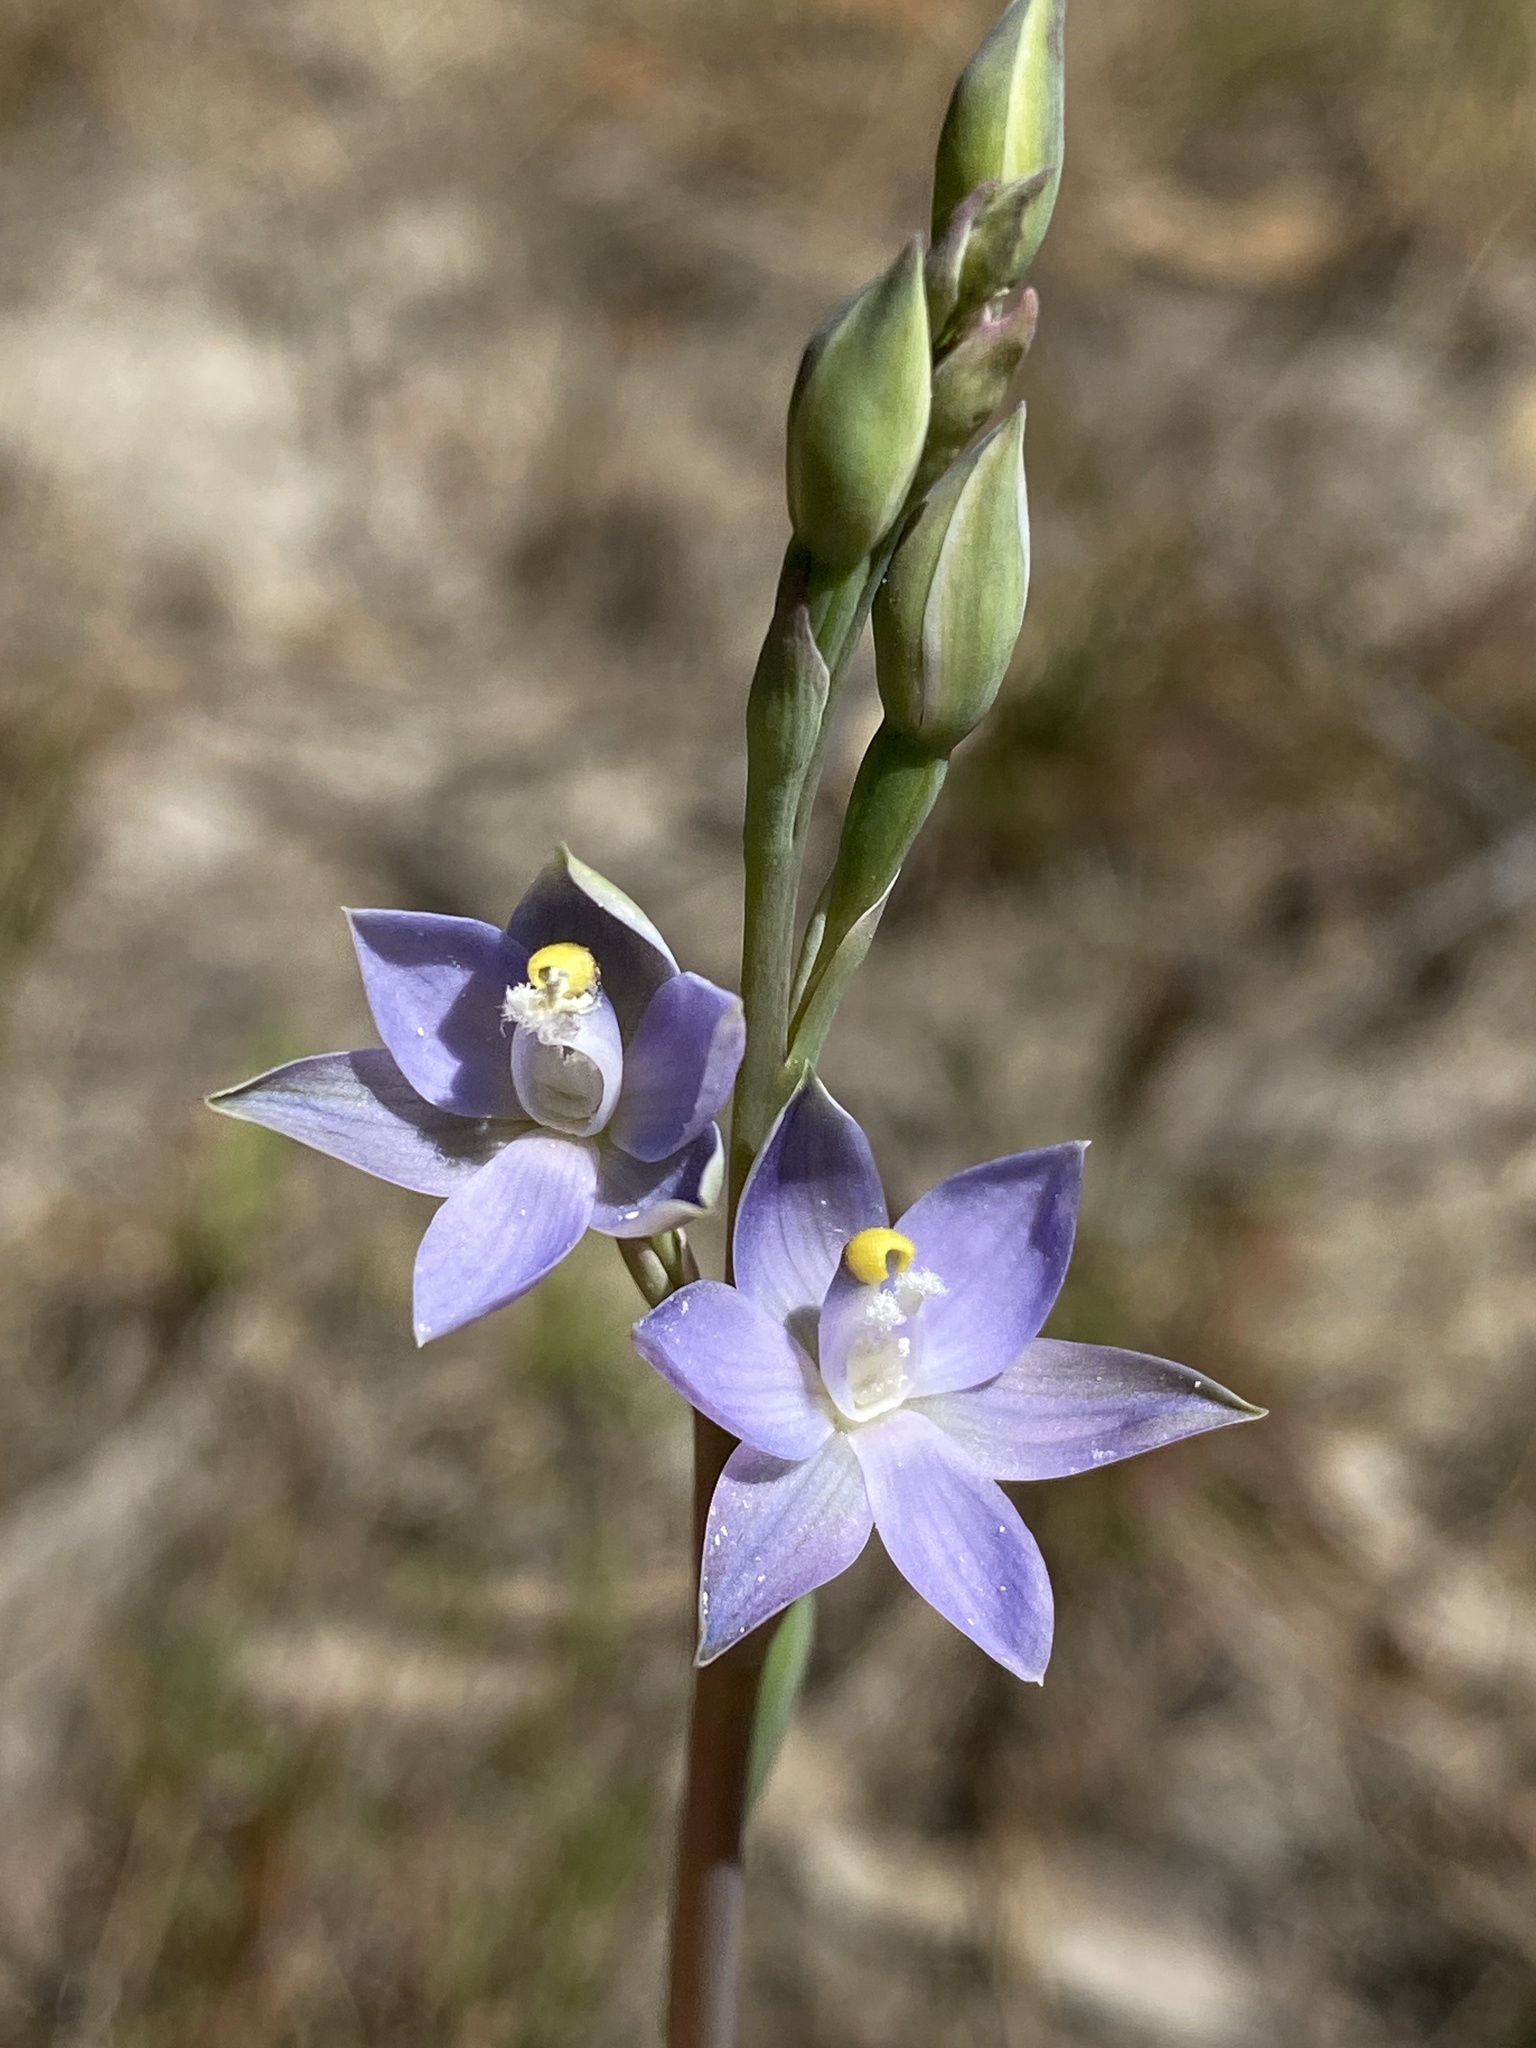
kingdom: Plantae
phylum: Tracheophyta
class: Liliopsida
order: Asparagales
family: Orchidaceae
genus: Thelymitra
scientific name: Thelymitra bracteata
